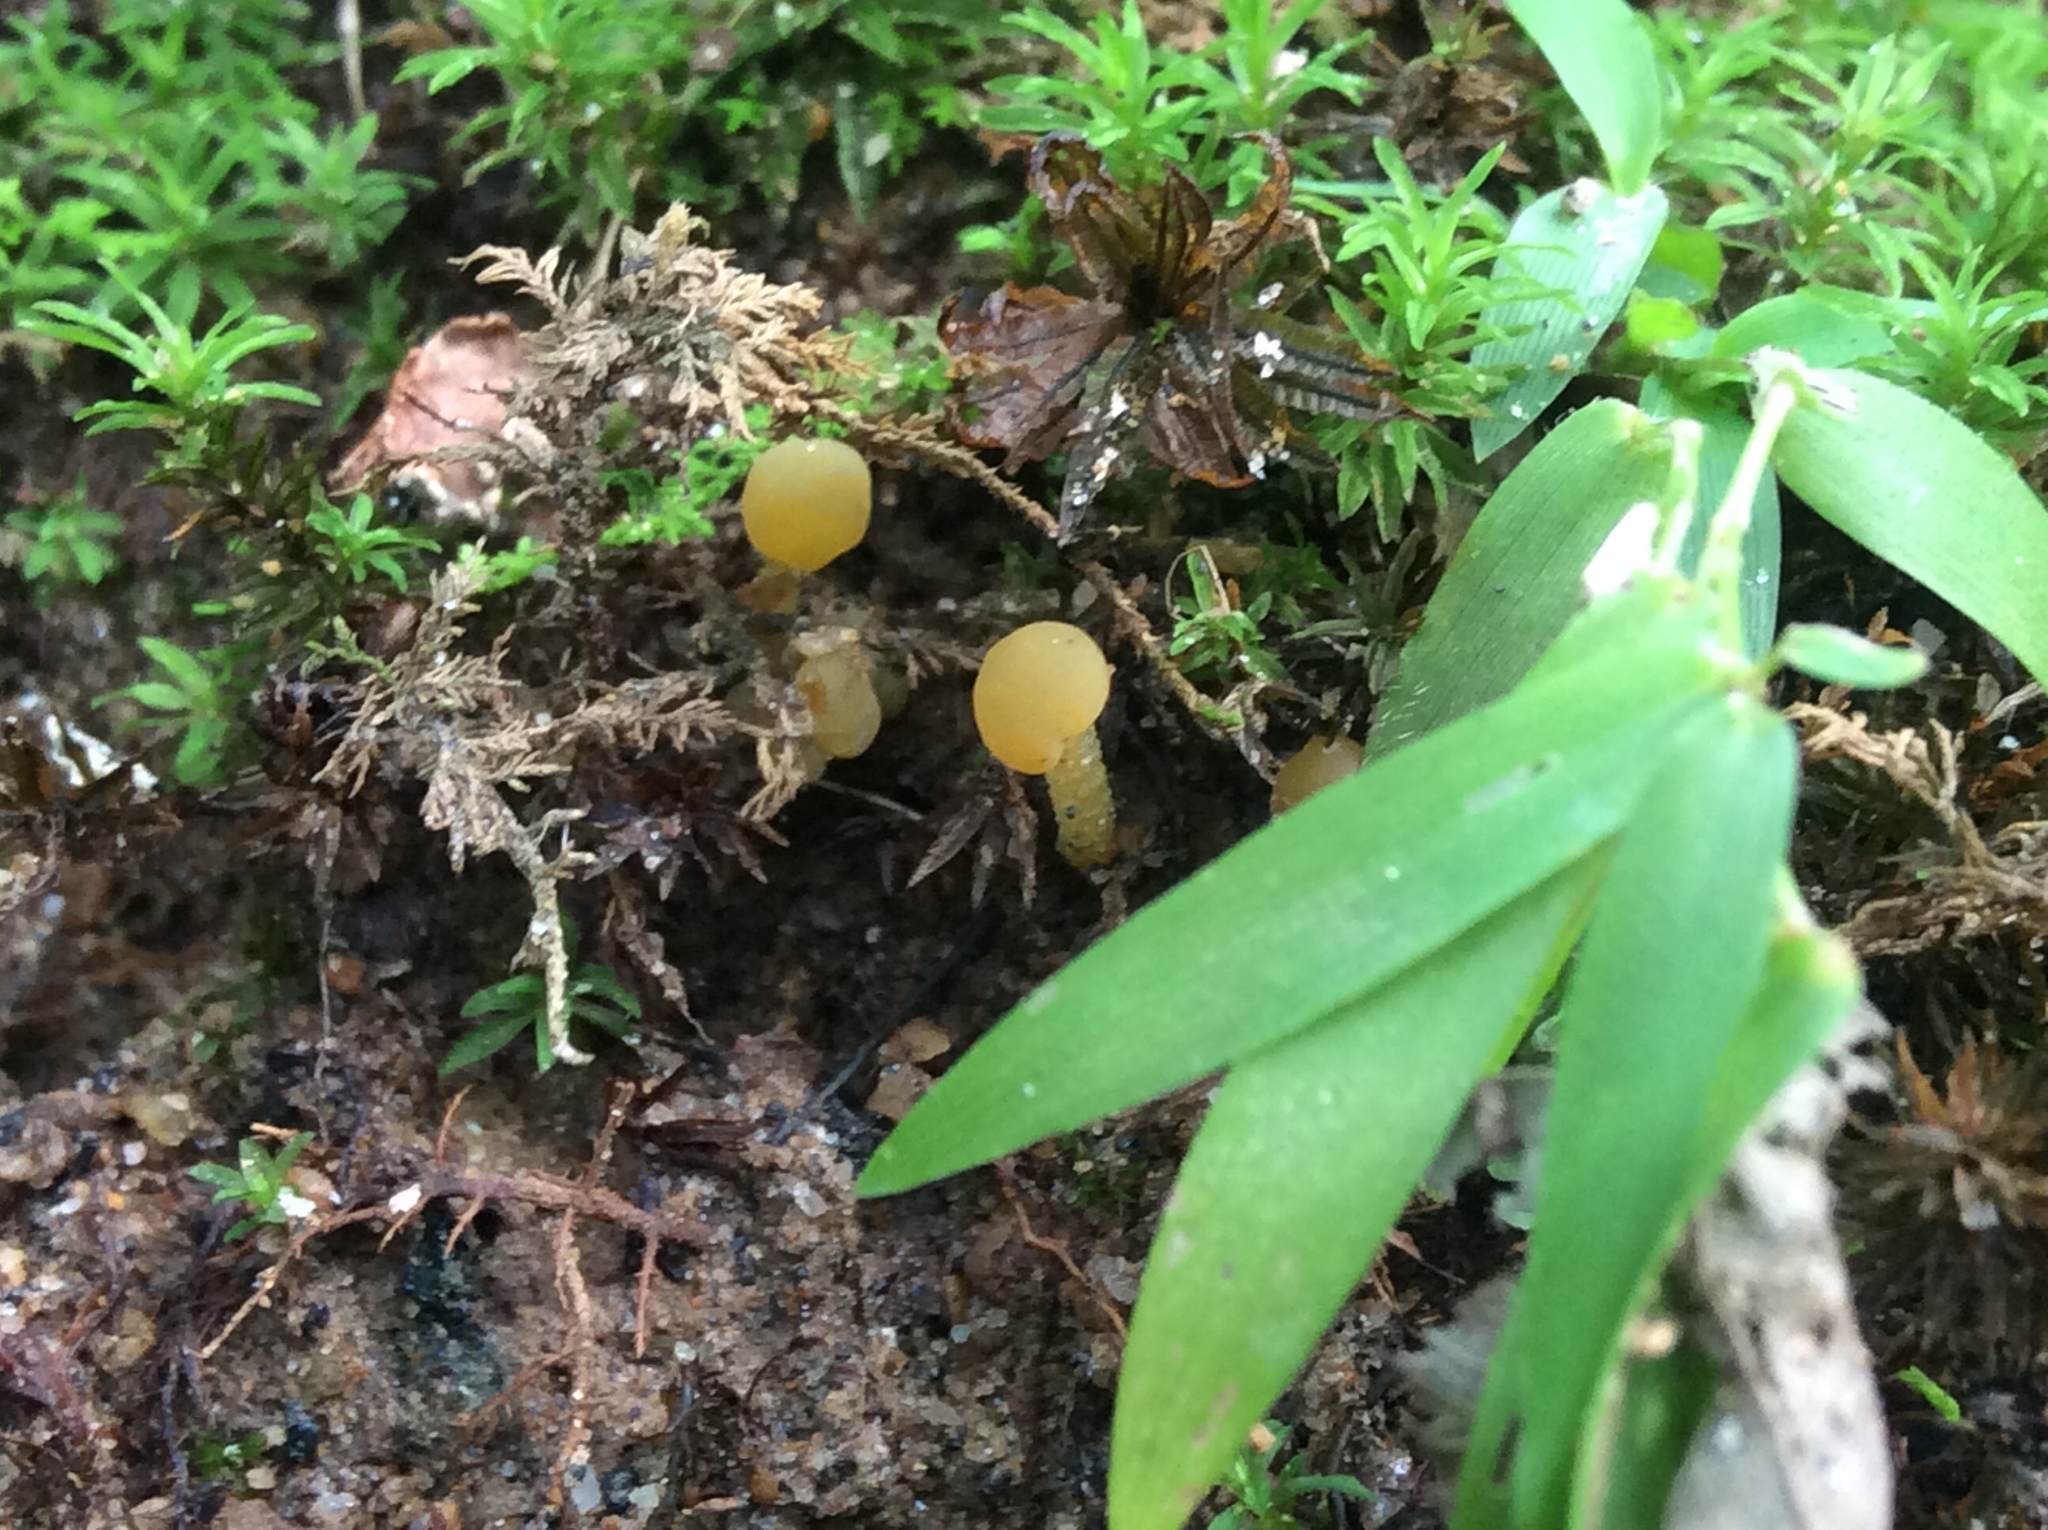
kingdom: Fungi
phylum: Ascomycota
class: Leotiomycetes
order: Leotiales
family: Leotiaceae
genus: Leotia
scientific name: Leotia lubrica
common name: Jellybaby
